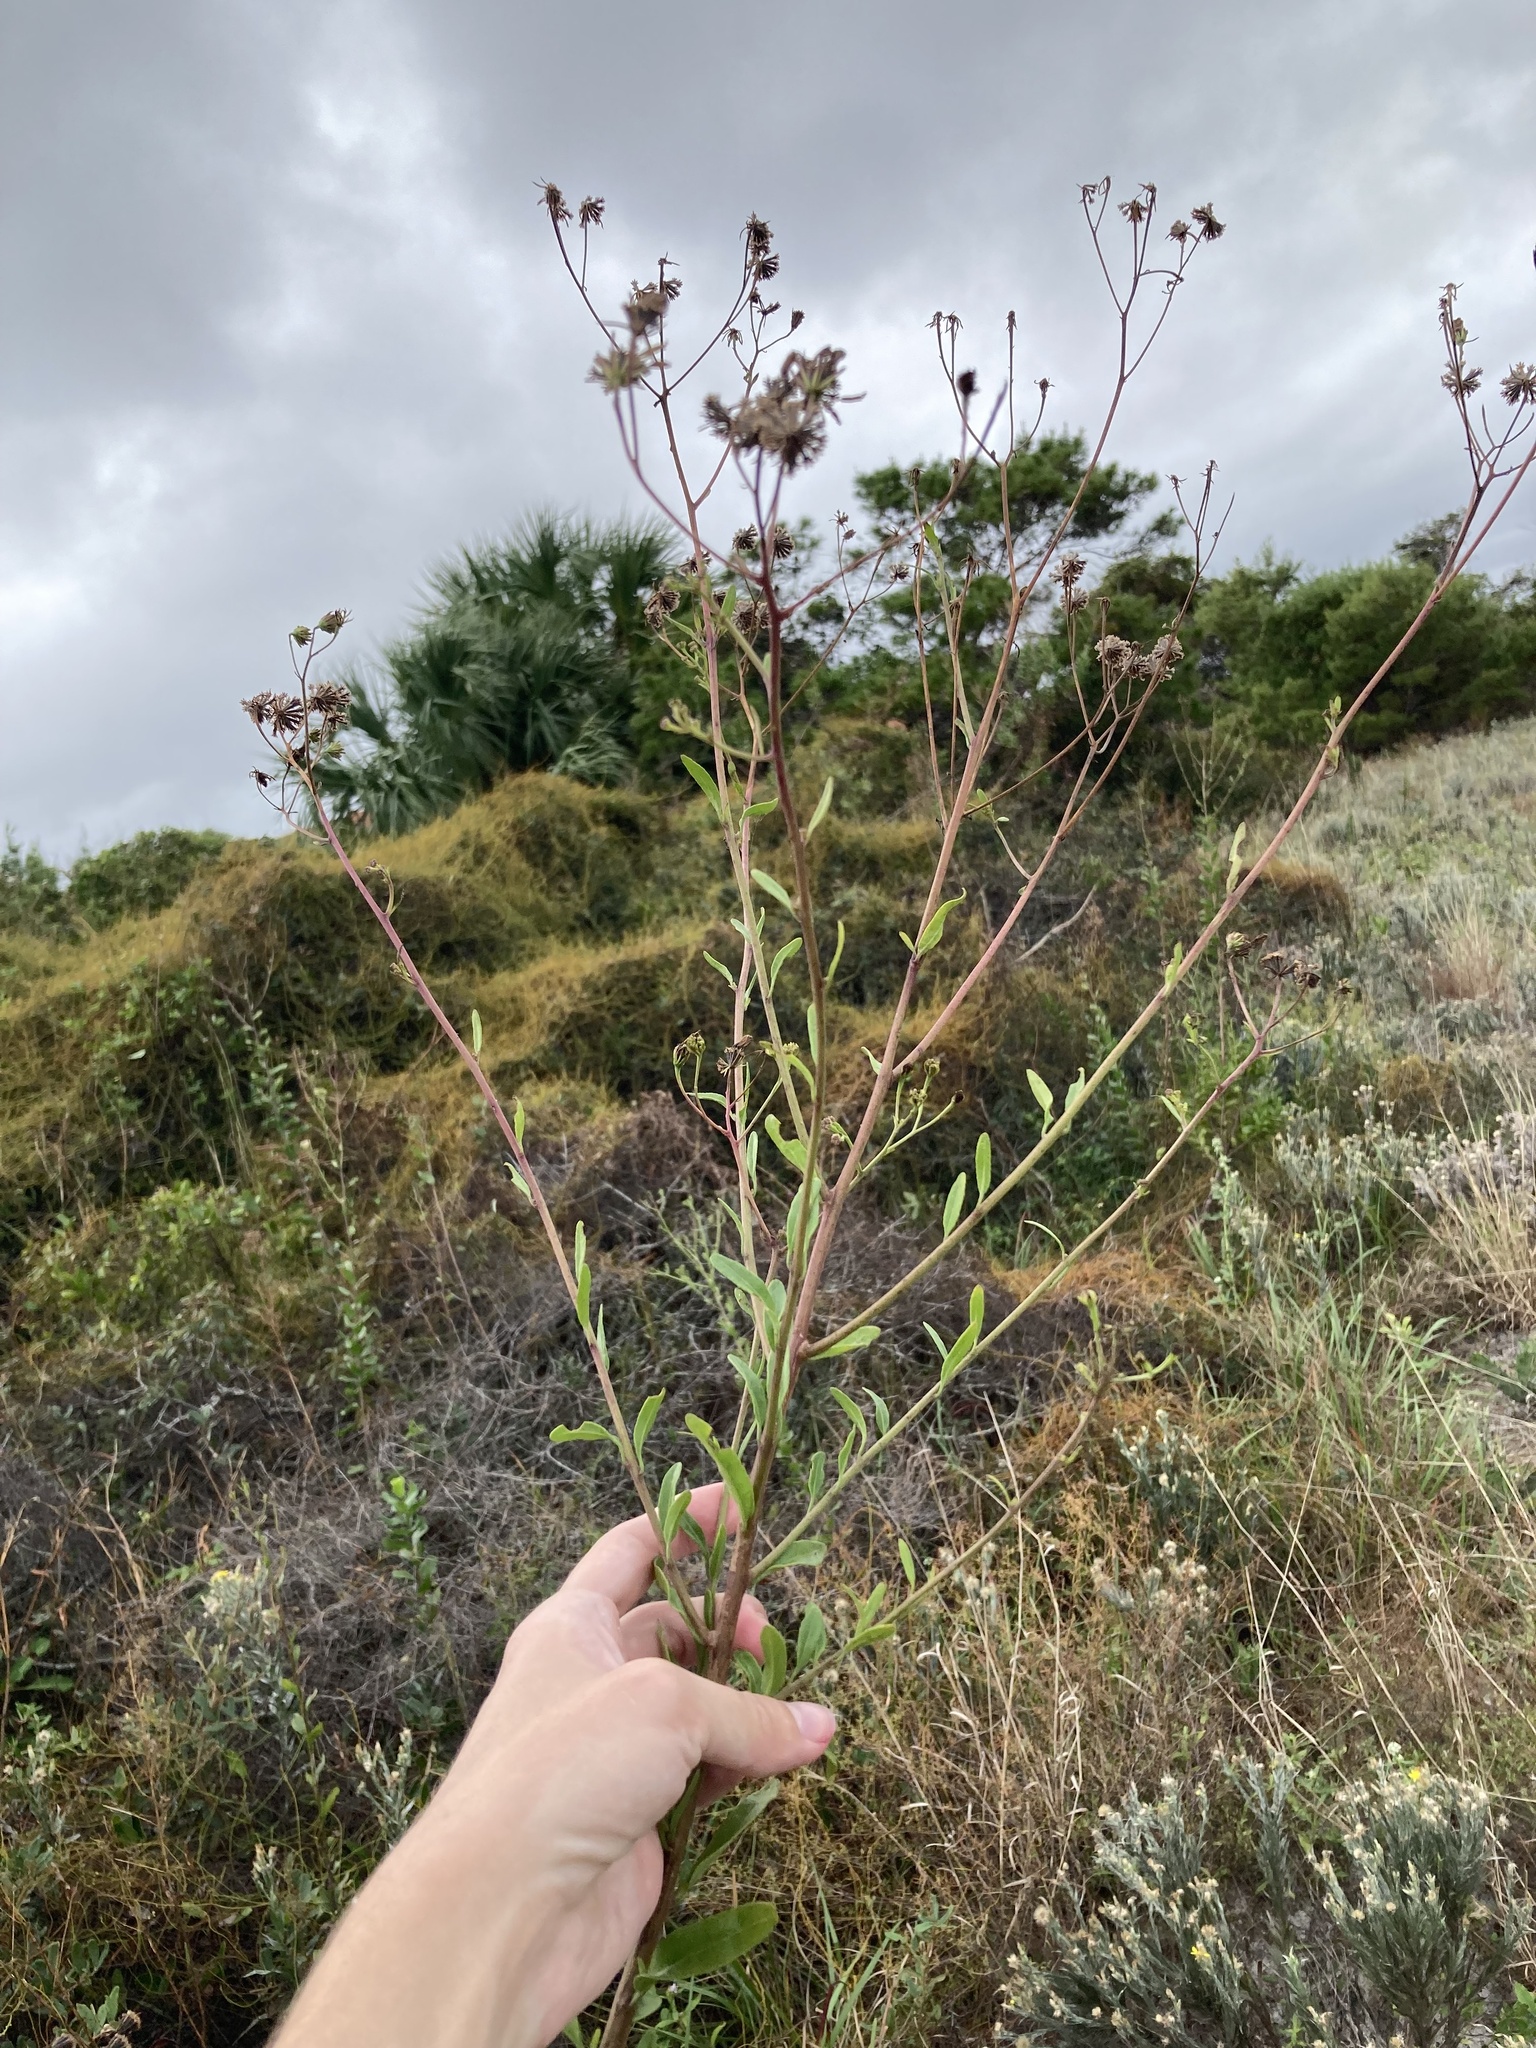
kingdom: Plantae
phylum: Tracheophyta
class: Magnoliopsida
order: Asterales
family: Asteraceae
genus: Palafoxia
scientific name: Palafoxia feayi
